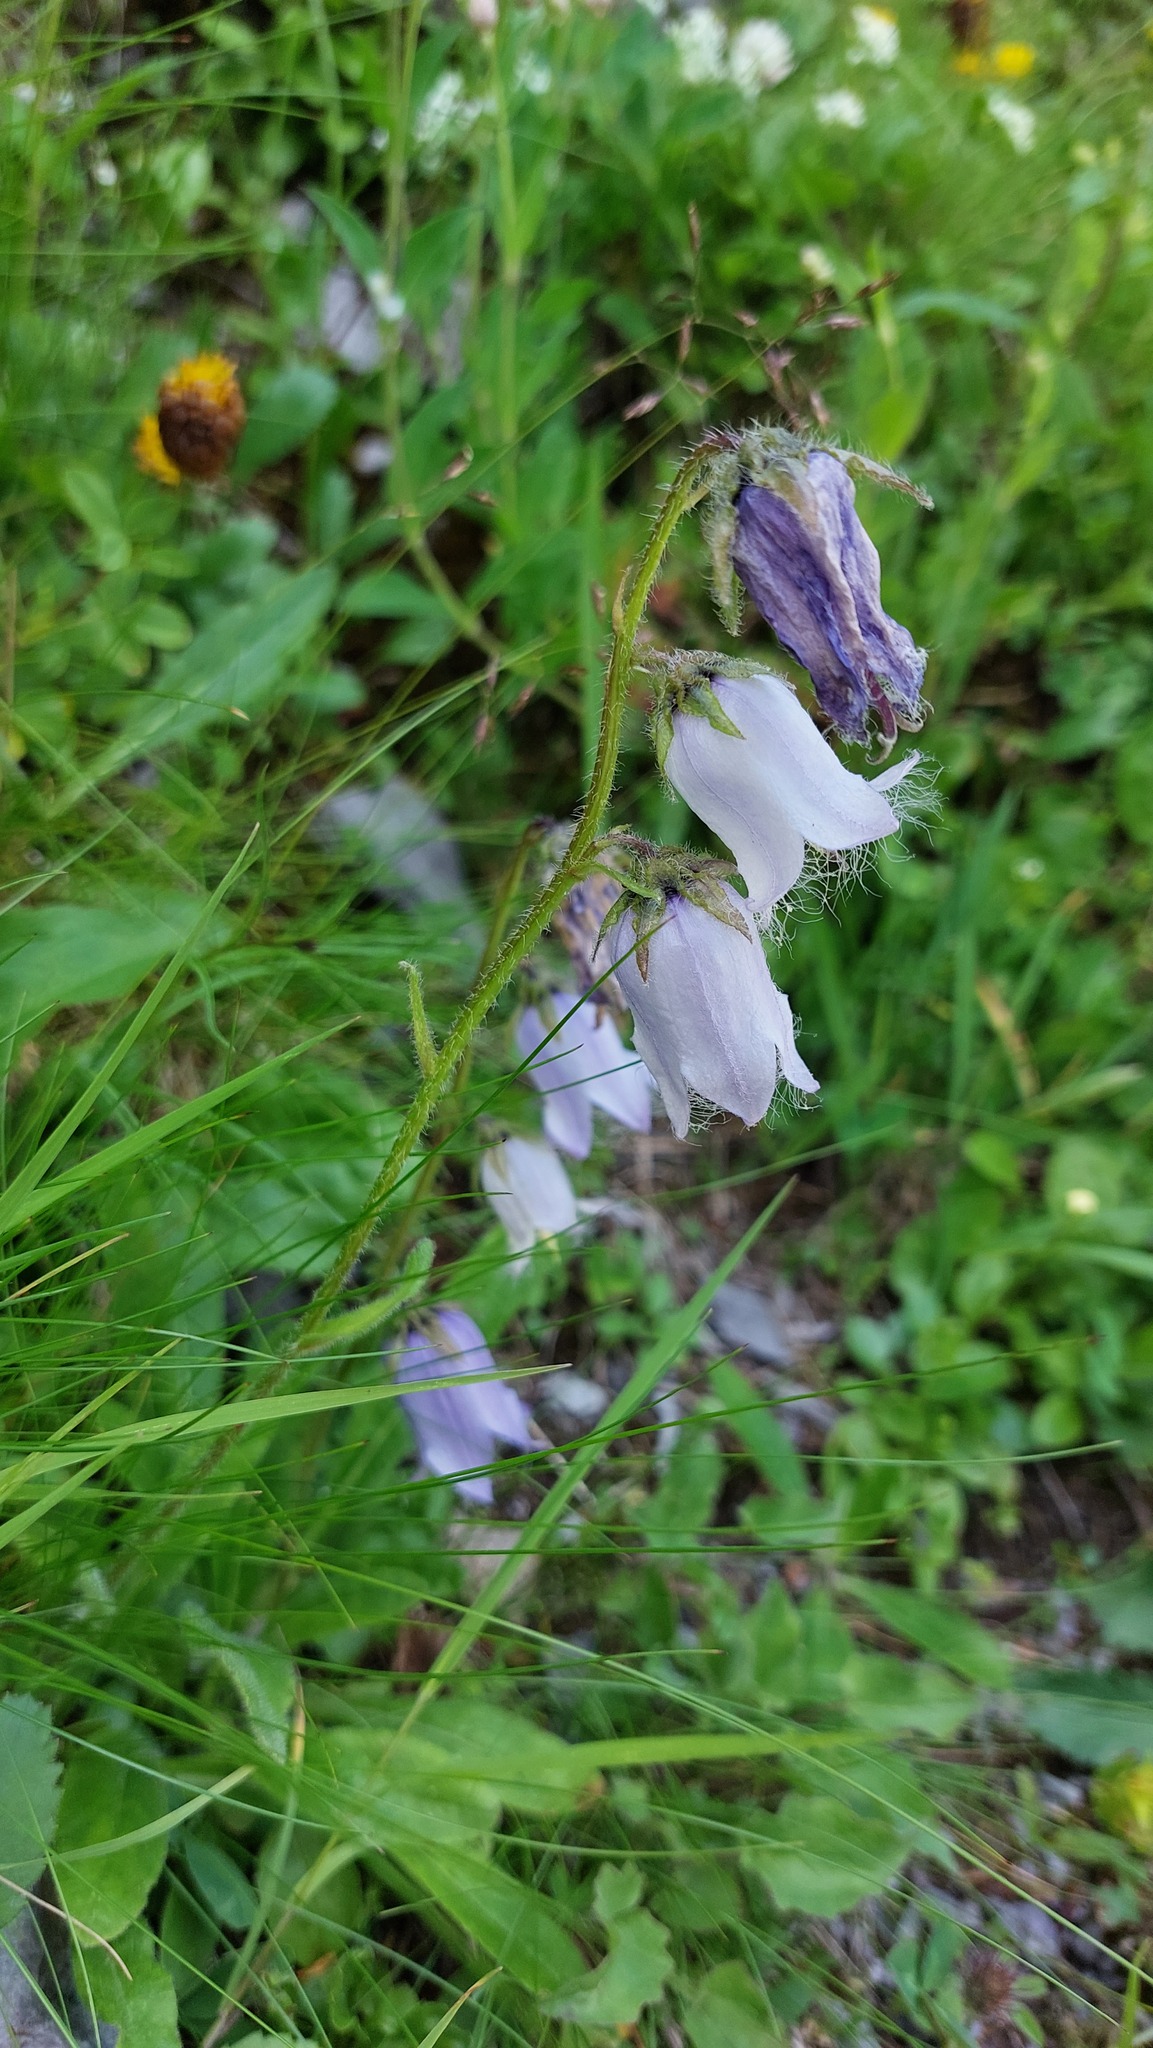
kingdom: Plantae
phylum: Tracheophyta
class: Magnoliopsida
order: Asterales
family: Campanulaceae
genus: Campanula
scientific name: Campanula barbata
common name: Bearded bellflower
